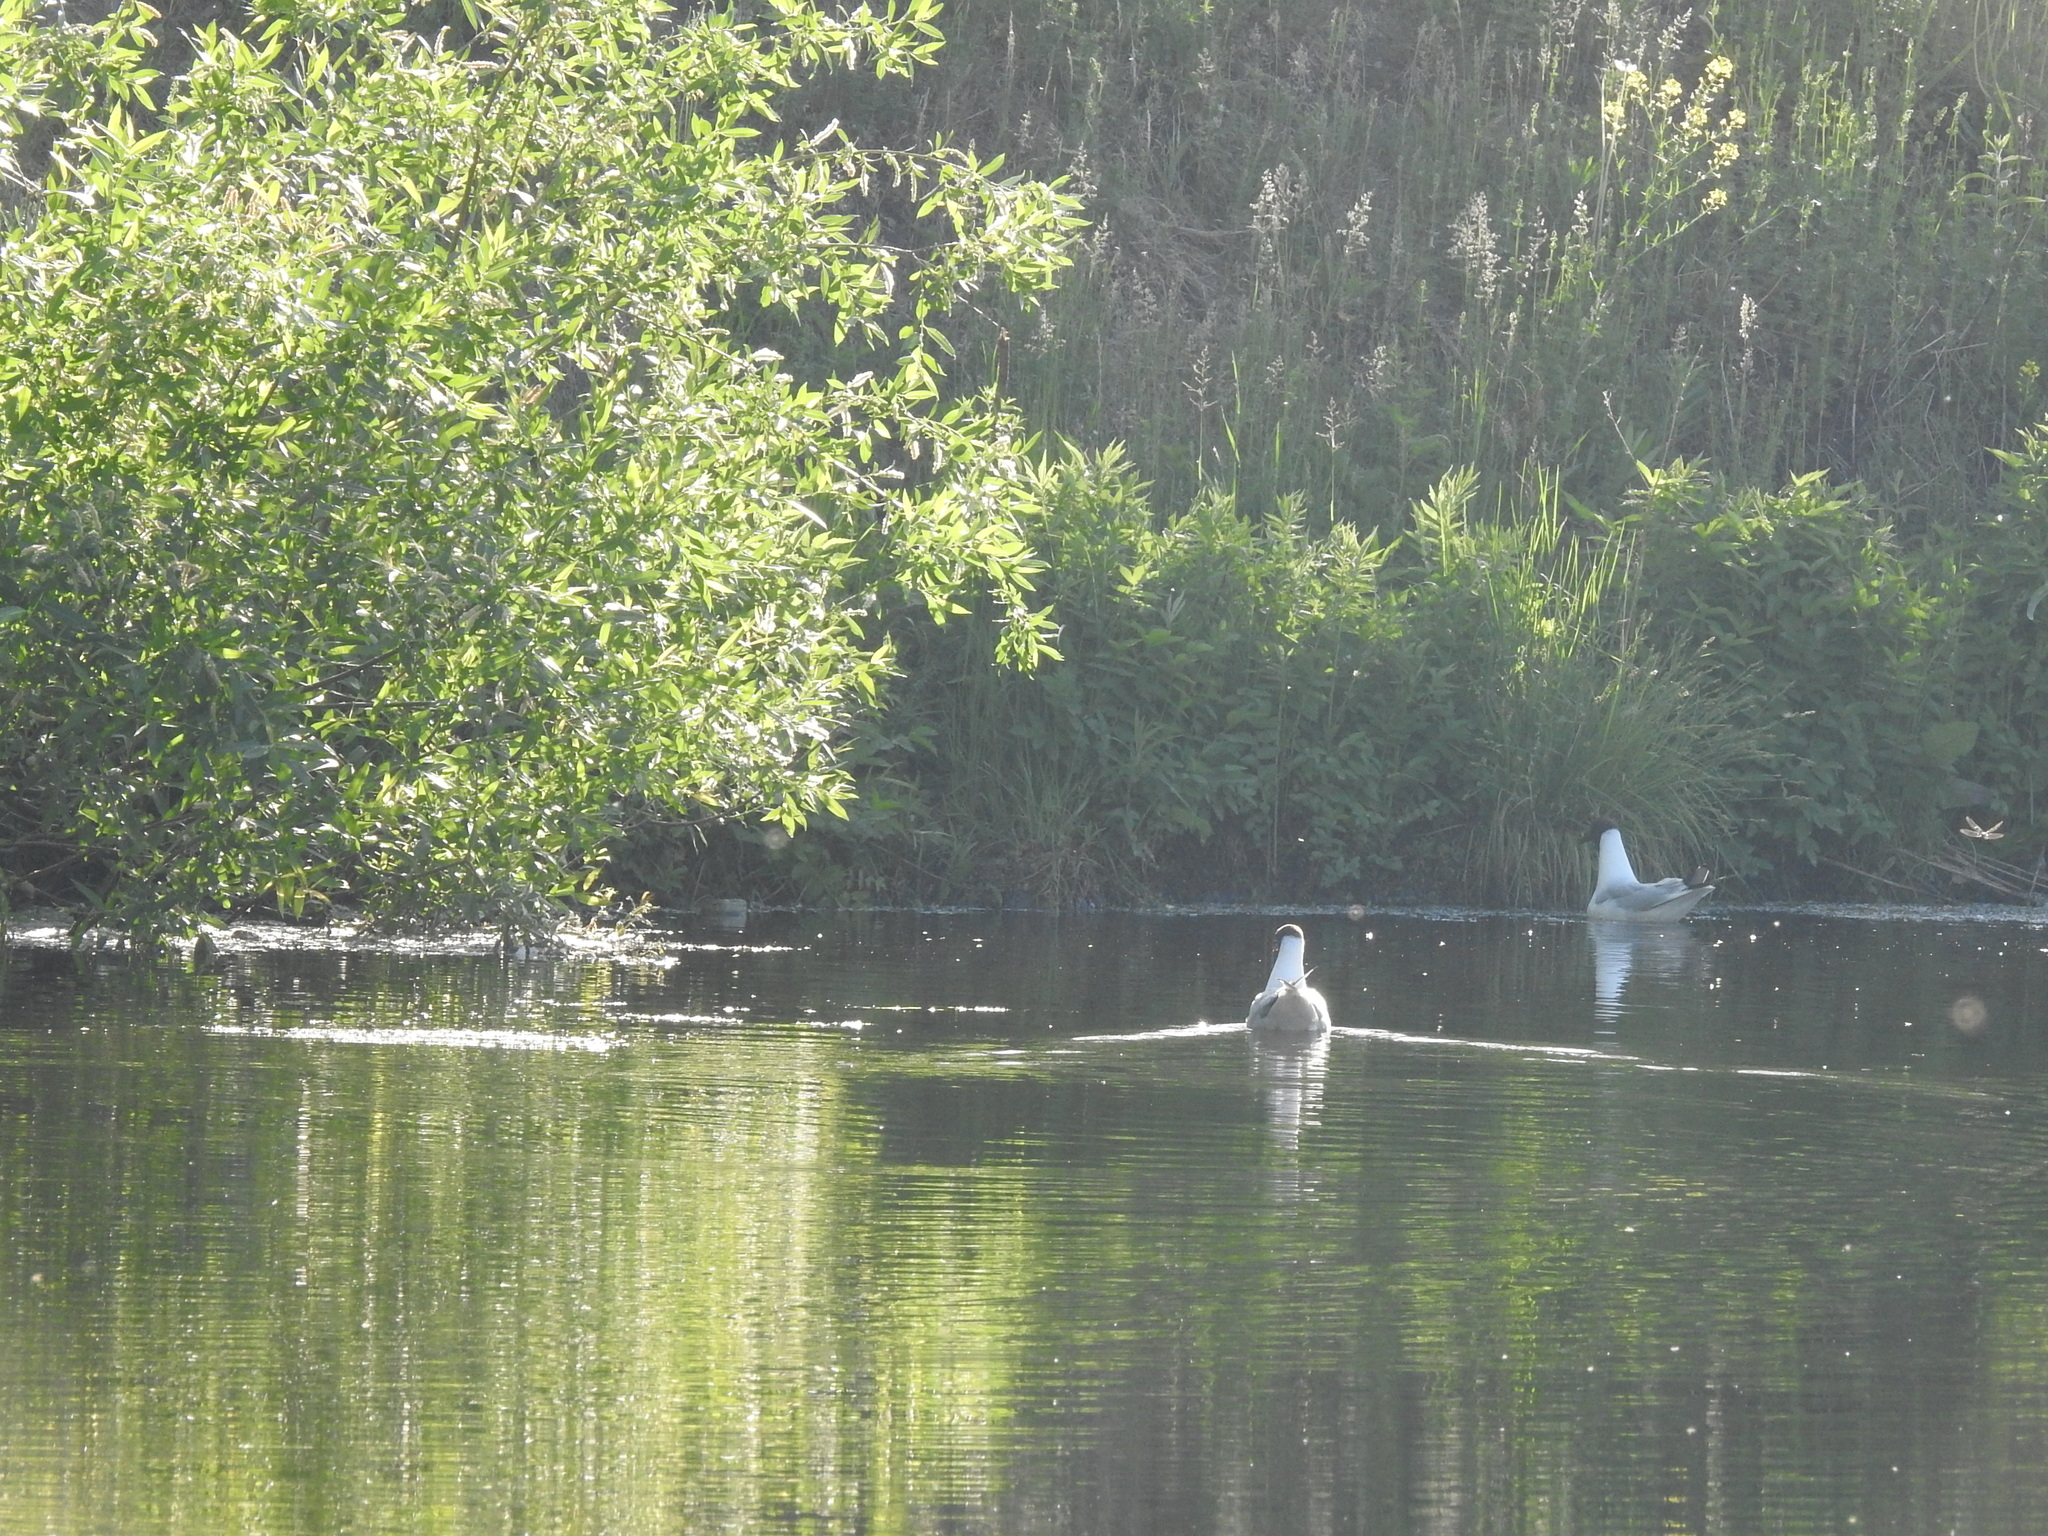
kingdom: Animalia
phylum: Chordata
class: Aves
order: Charadriiformes
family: Laridae
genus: Chroicocephalus
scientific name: Chroicocephalus ridibundus
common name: Black-headed gull
